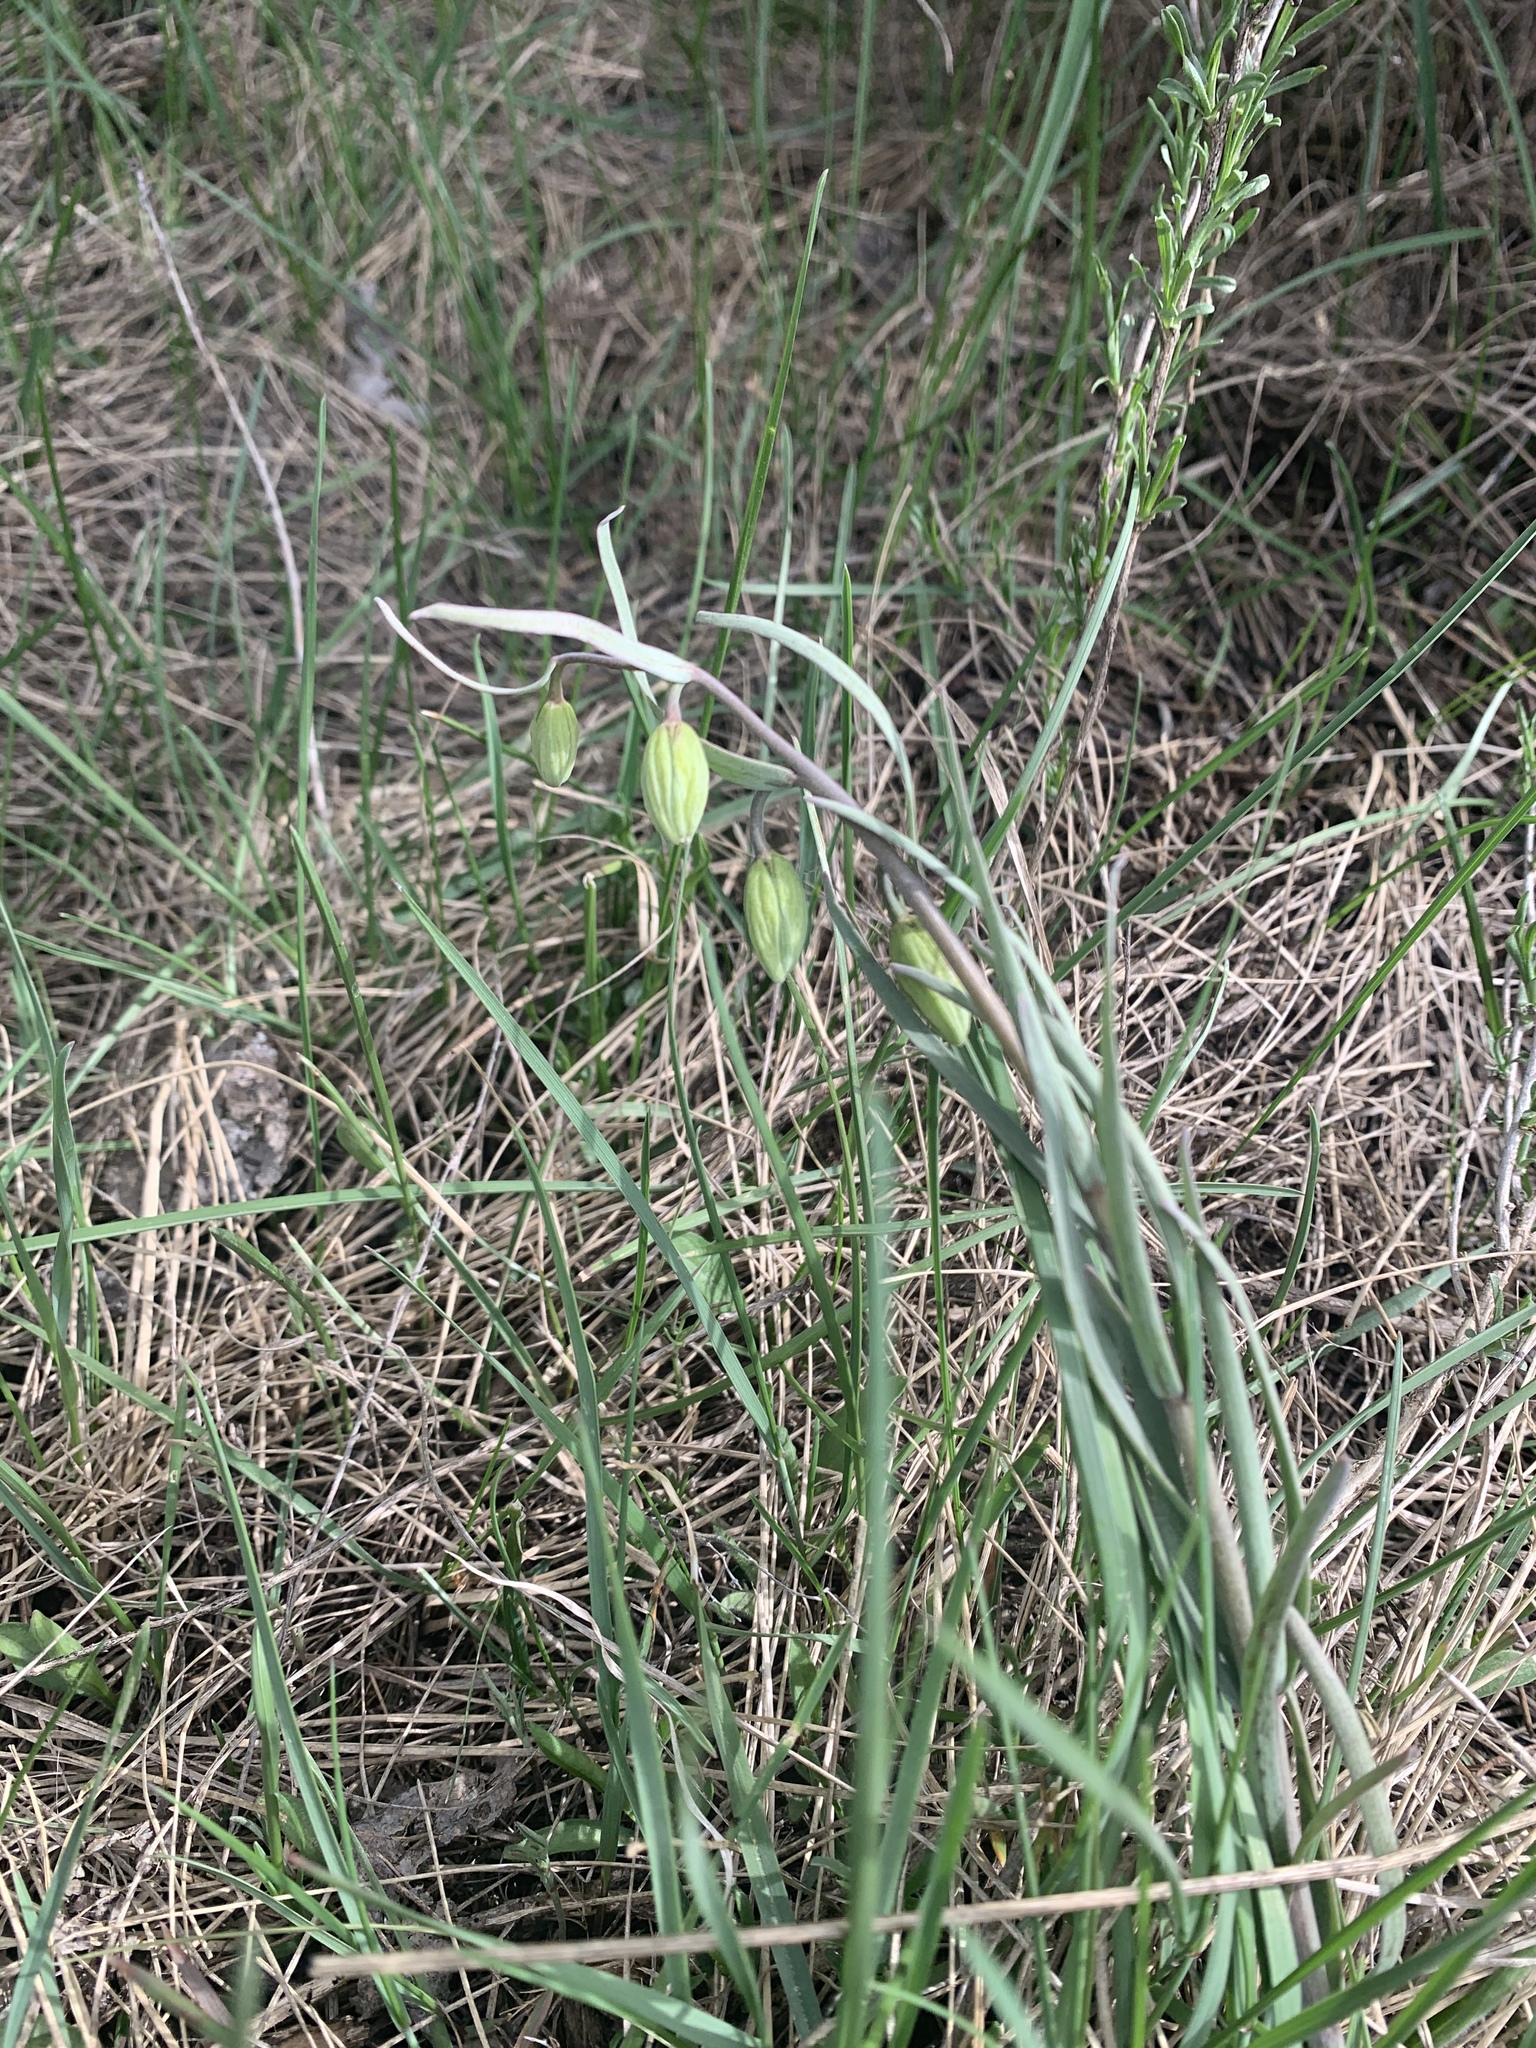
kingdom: Plantae
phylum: Tracheophyta
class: Liliopsida
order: Liliales
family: Liliaceae
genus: Fritillaria
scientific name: Fritillaria atropurpurea
